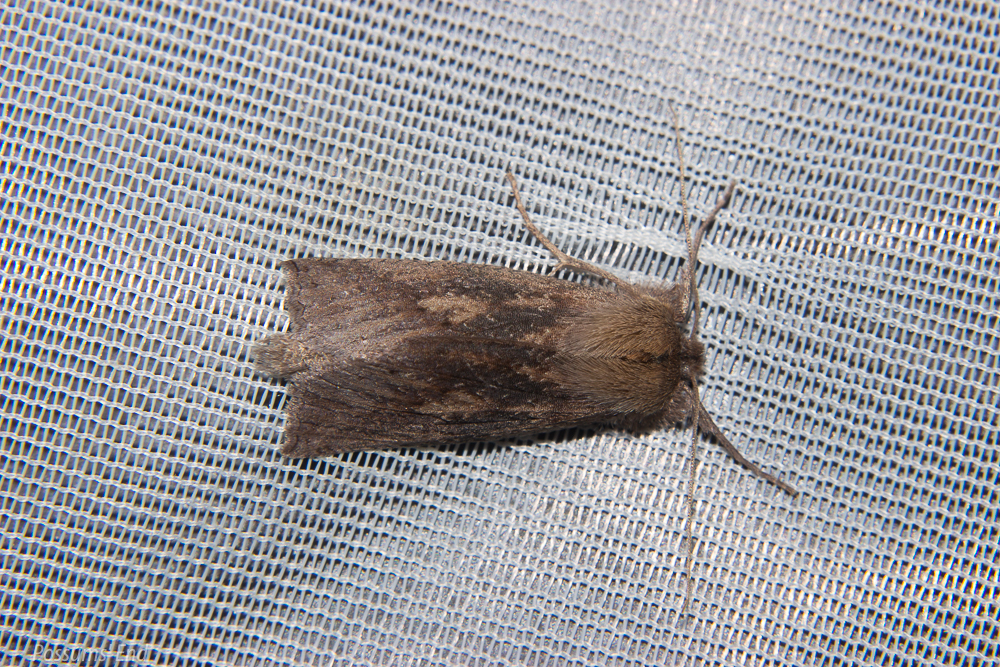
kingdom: Animalia
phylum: Arthropoda
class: Insecta
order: Lepidoptera
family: Geometridae
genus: Declana
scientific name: Declana leptomera
